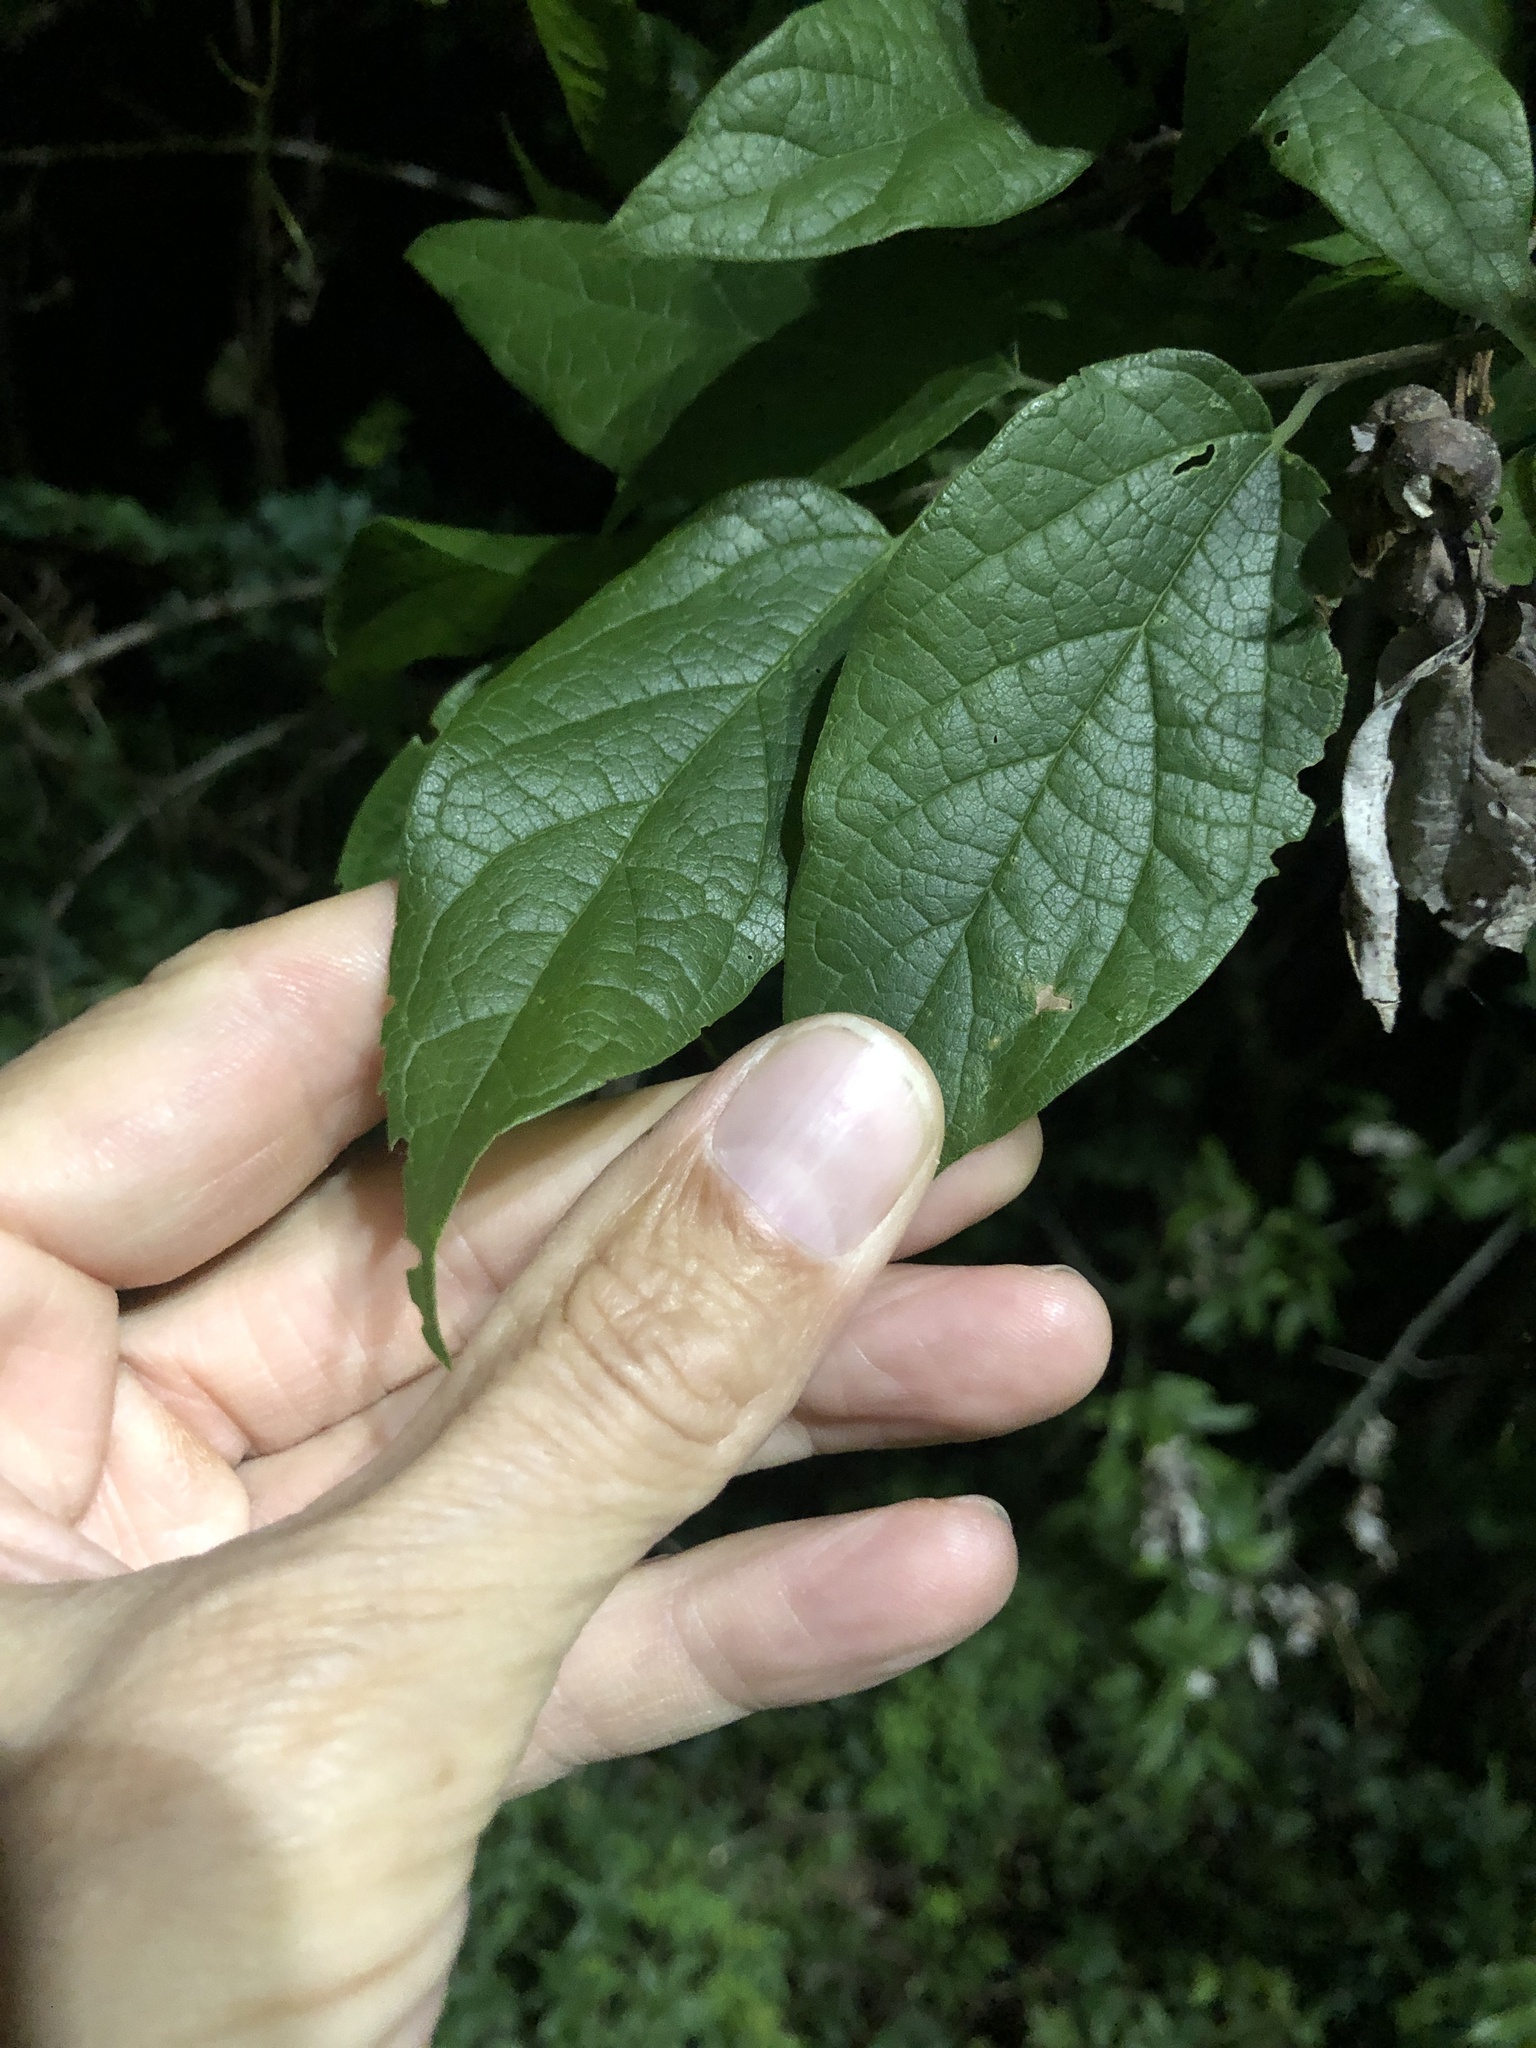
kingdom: Plantae
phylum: Tracheophyta
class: Magnoliopsida
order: Rosales
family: Cannabaceae
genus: Celtis
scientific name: Celtis laevigata
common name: Sugarberry
